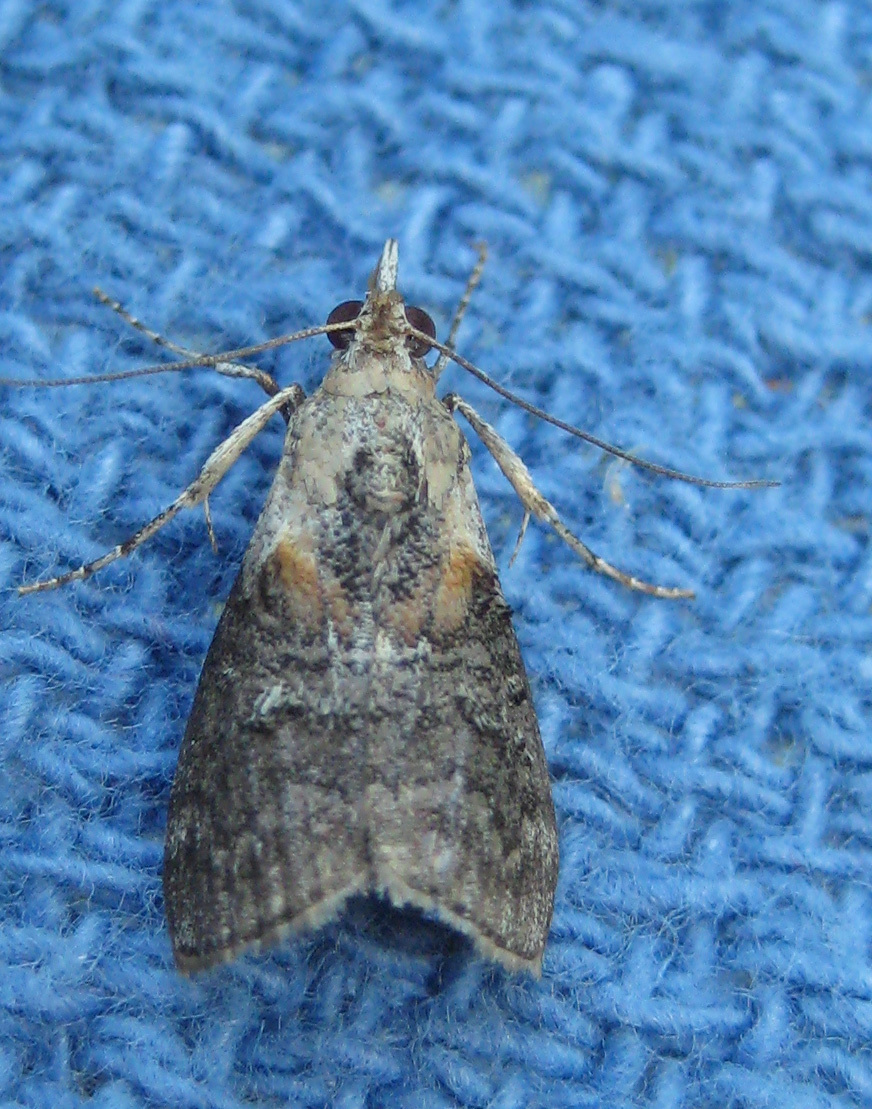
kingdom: Animalia
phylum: Arthropoda
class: Insecta
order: Lepidoptera
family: Pyralidae
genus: Pococera
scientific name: Pococera expandens
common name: Striped oak webworm moth
